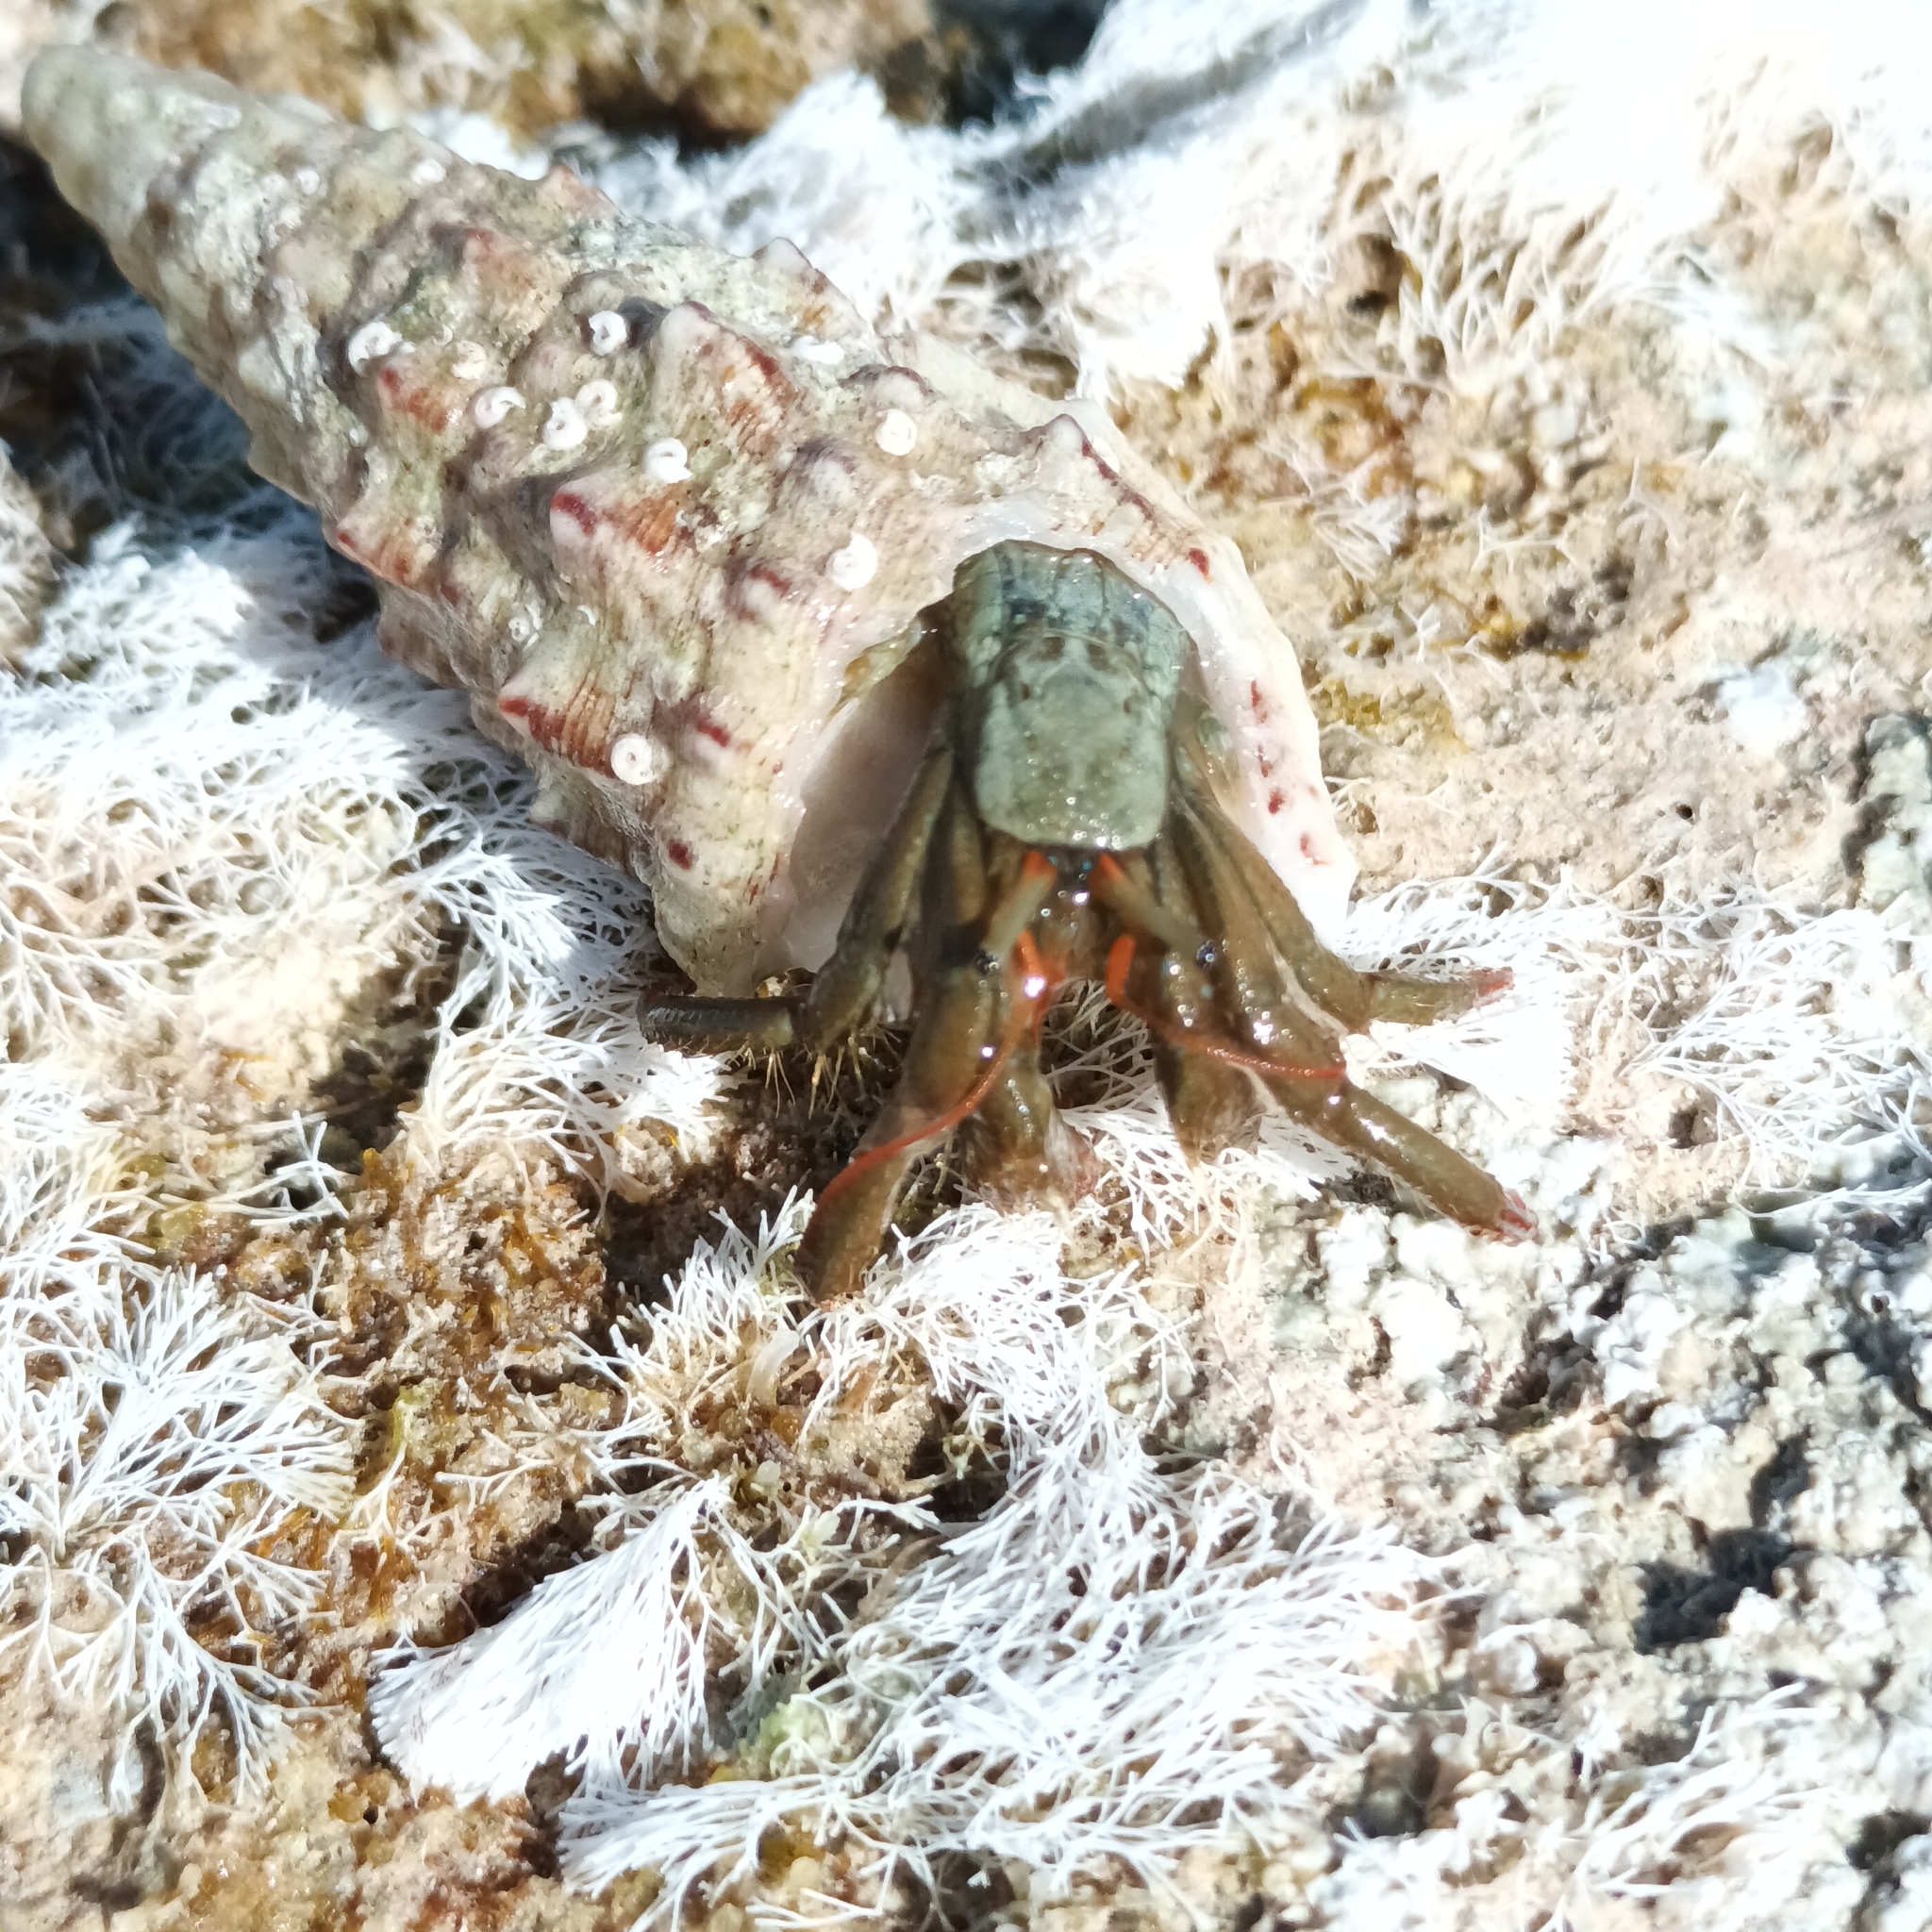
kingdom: Animalia
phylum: Arthropoda
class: Malacostraca
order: Decapoda
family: Diogenidae
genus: Clibanarius
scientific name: Clibanarius erythropus
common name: Hermit crab
